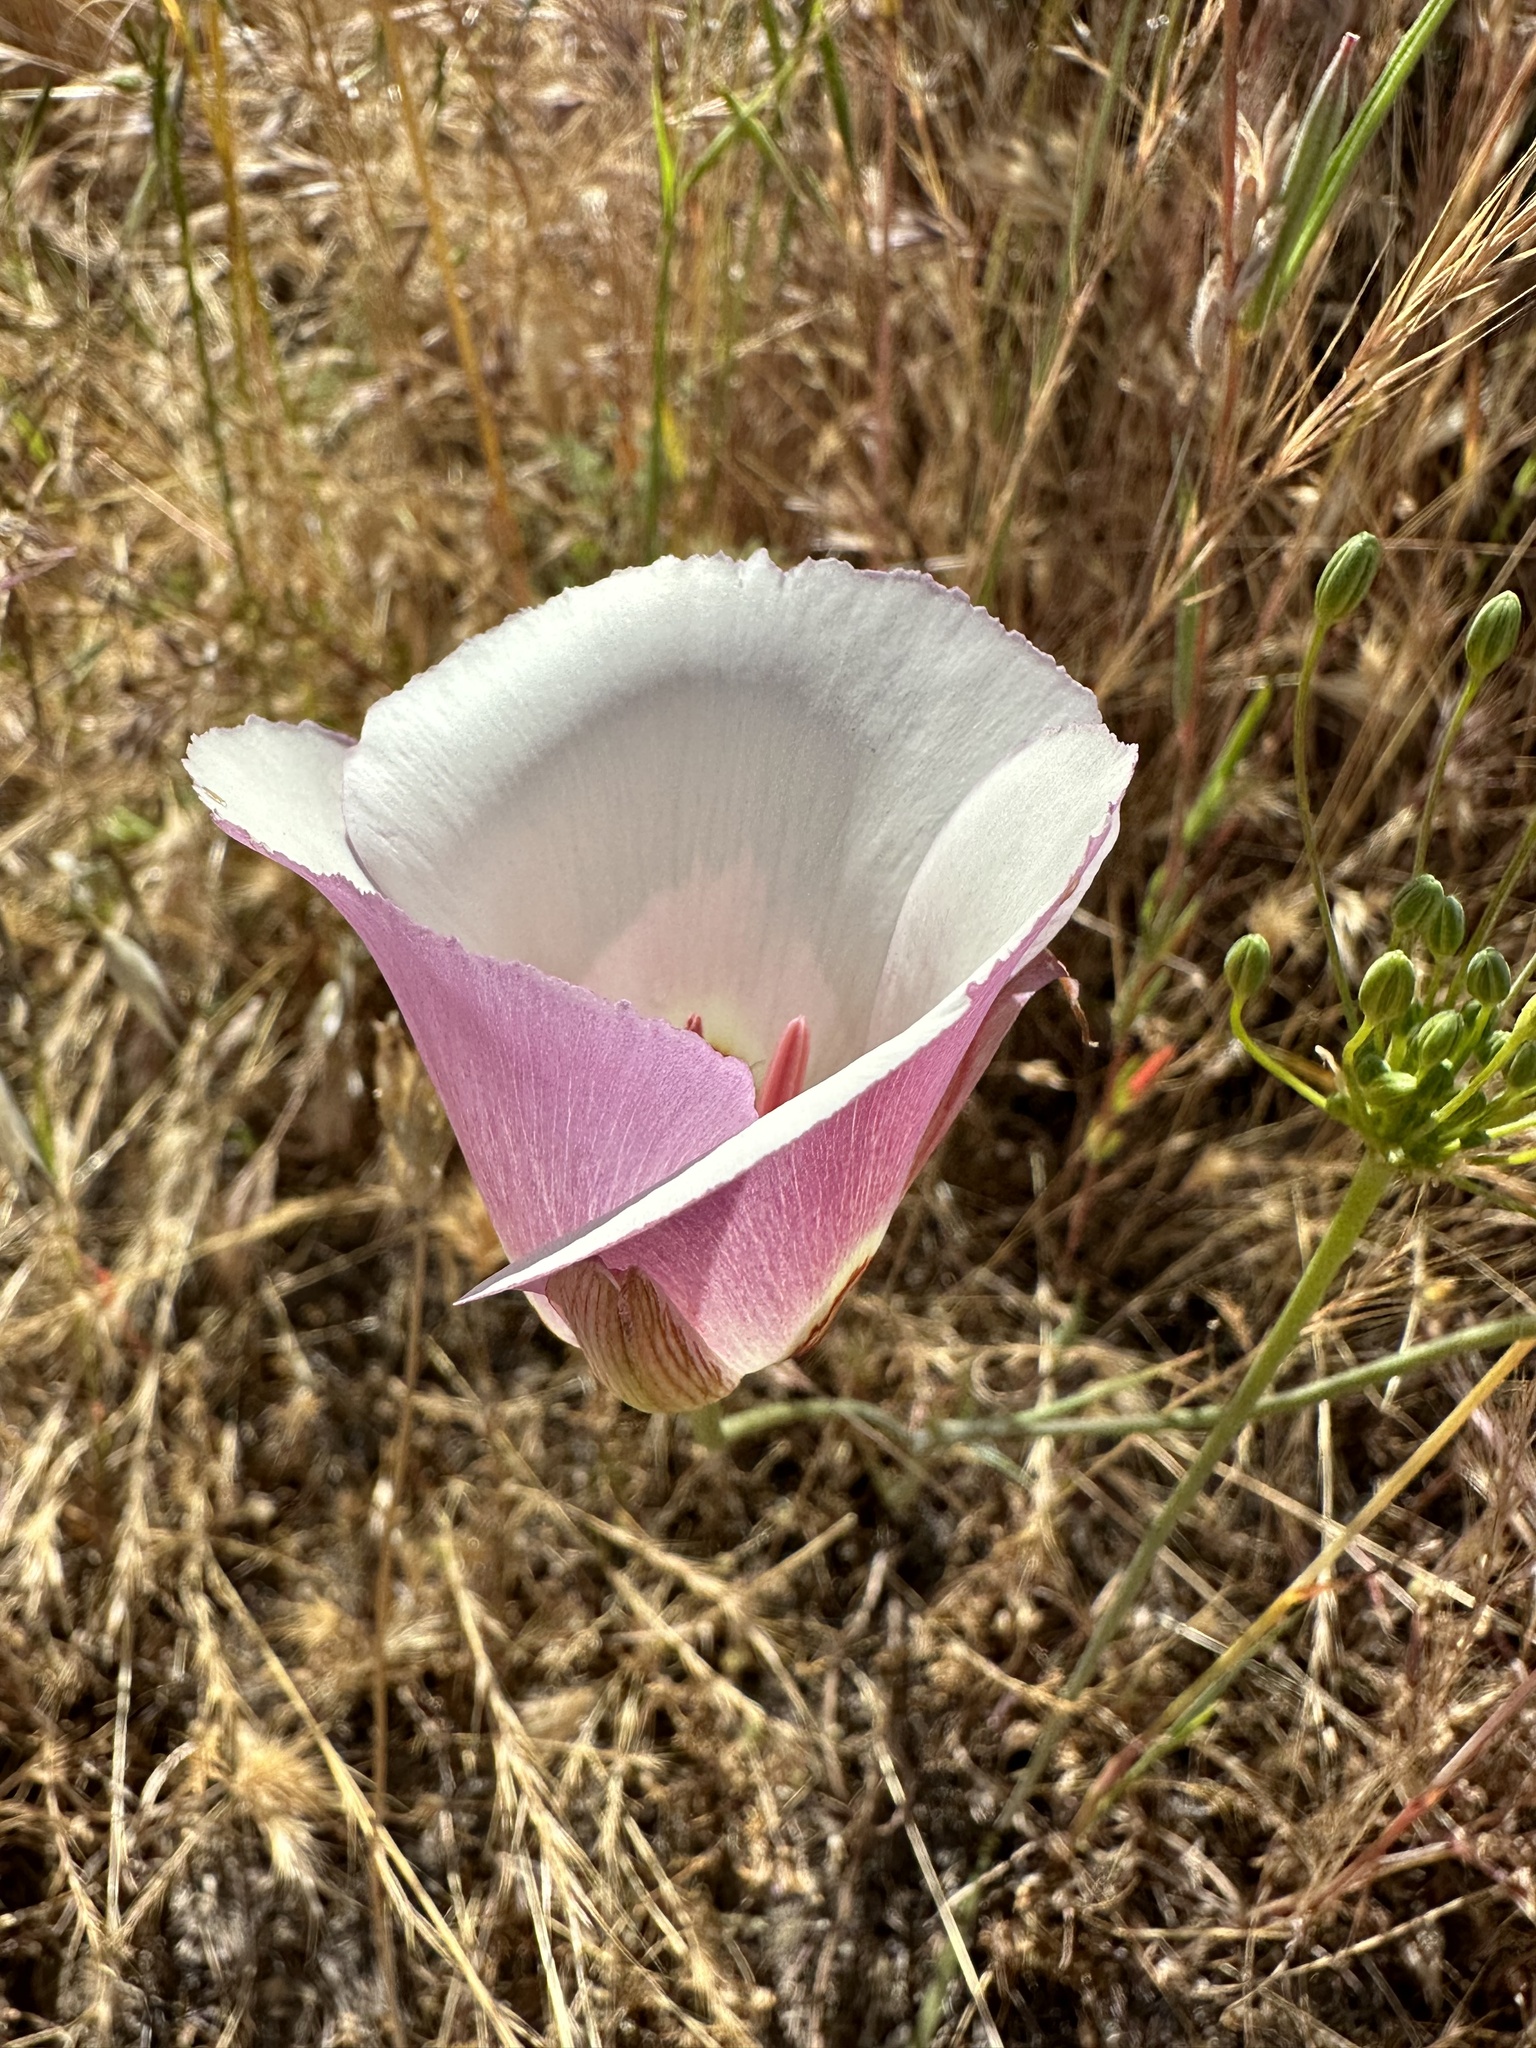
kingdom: Plantae
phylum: Tracheophyta
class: Liliopsida
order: Liliales
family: Liliaceae
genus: Calochortus
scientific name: Calochortus simulans
